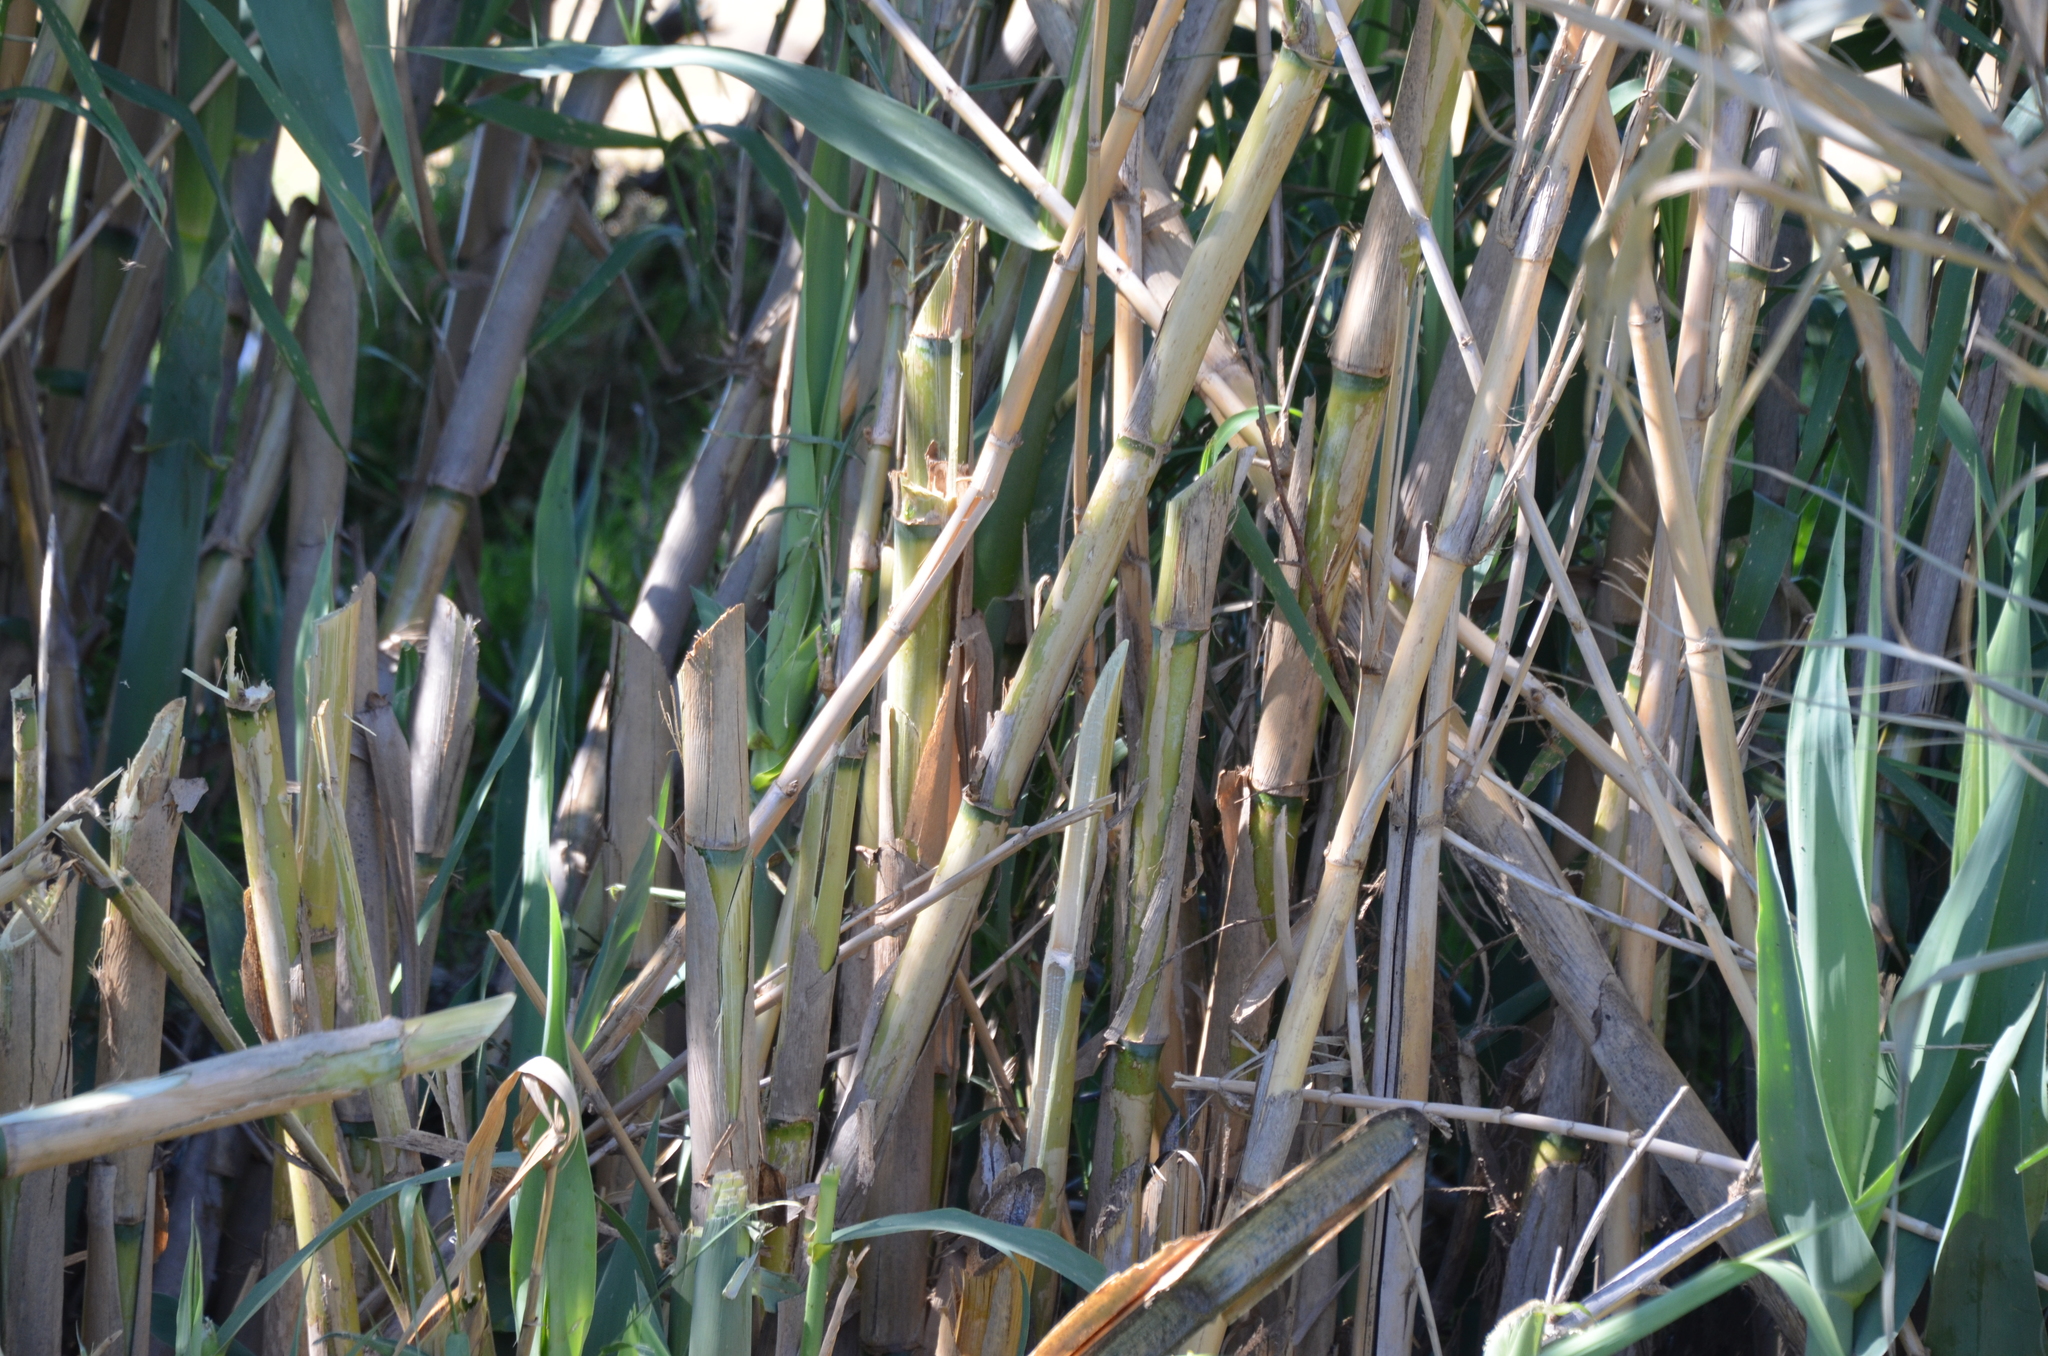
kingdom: Plantae
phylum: Tracheophyta
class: Liliopsida
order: Poales
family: Poaceae
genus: Arundo
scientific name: Arundo donax
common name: Giant reed
